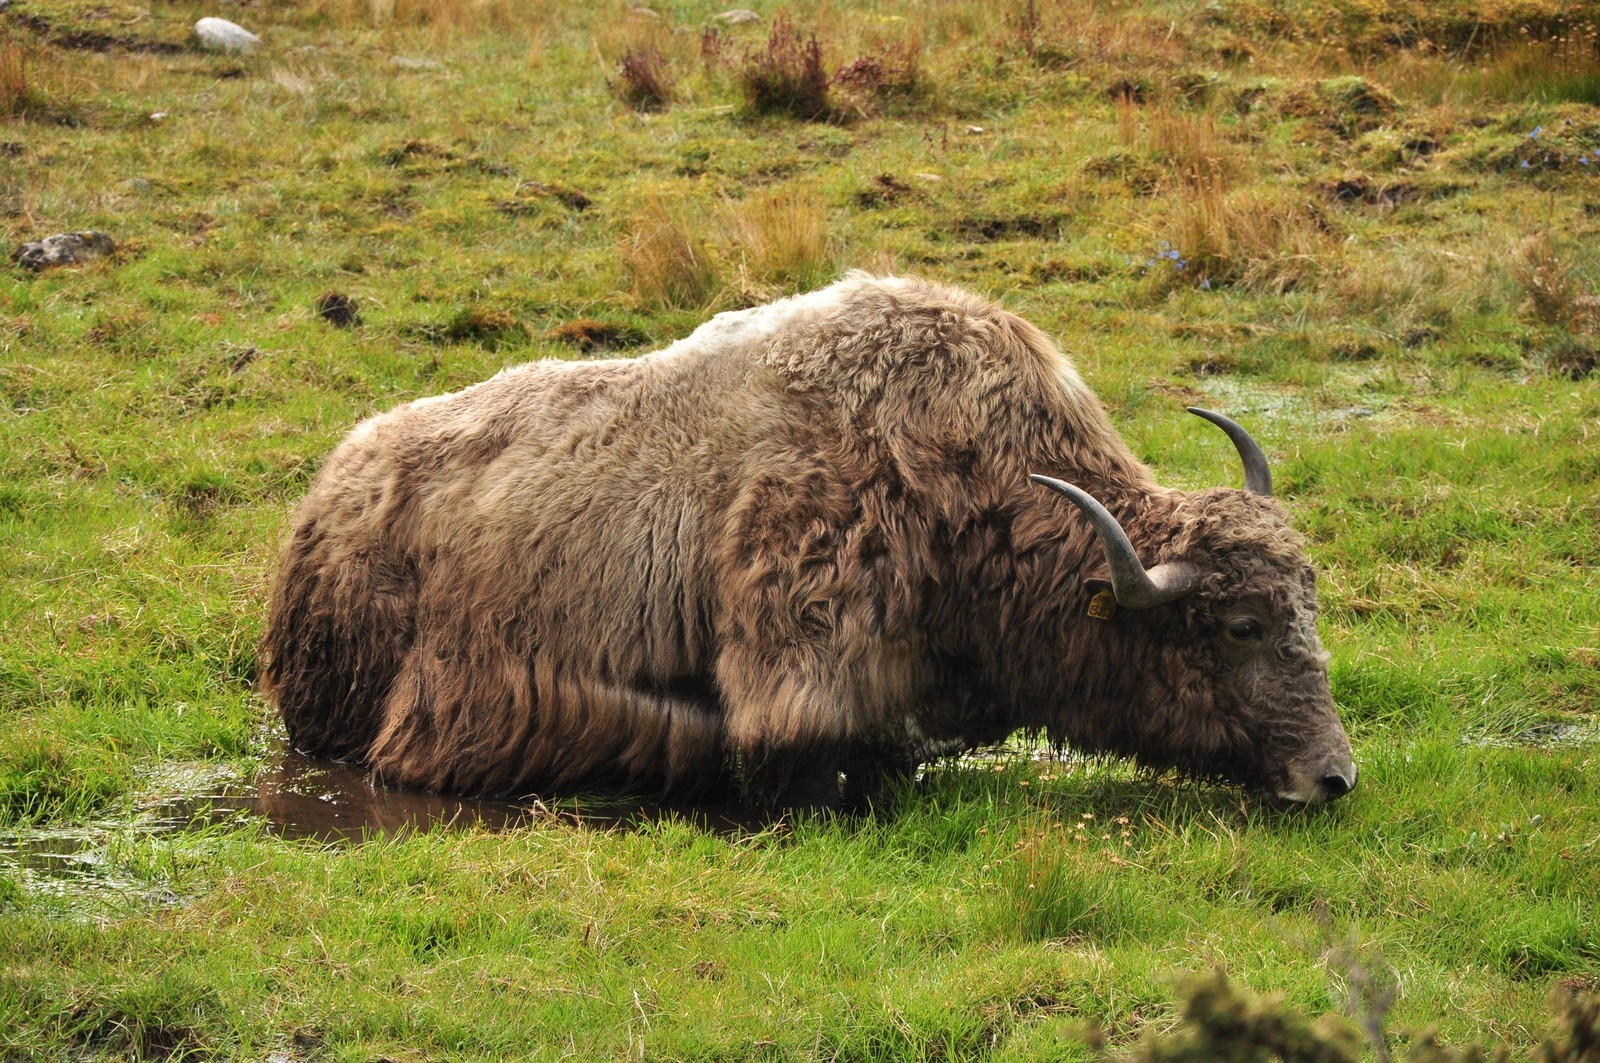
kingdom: Animalia
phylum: Chordata
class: Mammalia
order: Artiodactyla
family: Bovidae
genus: Bos
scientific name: Bos grunniens
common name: Yak
